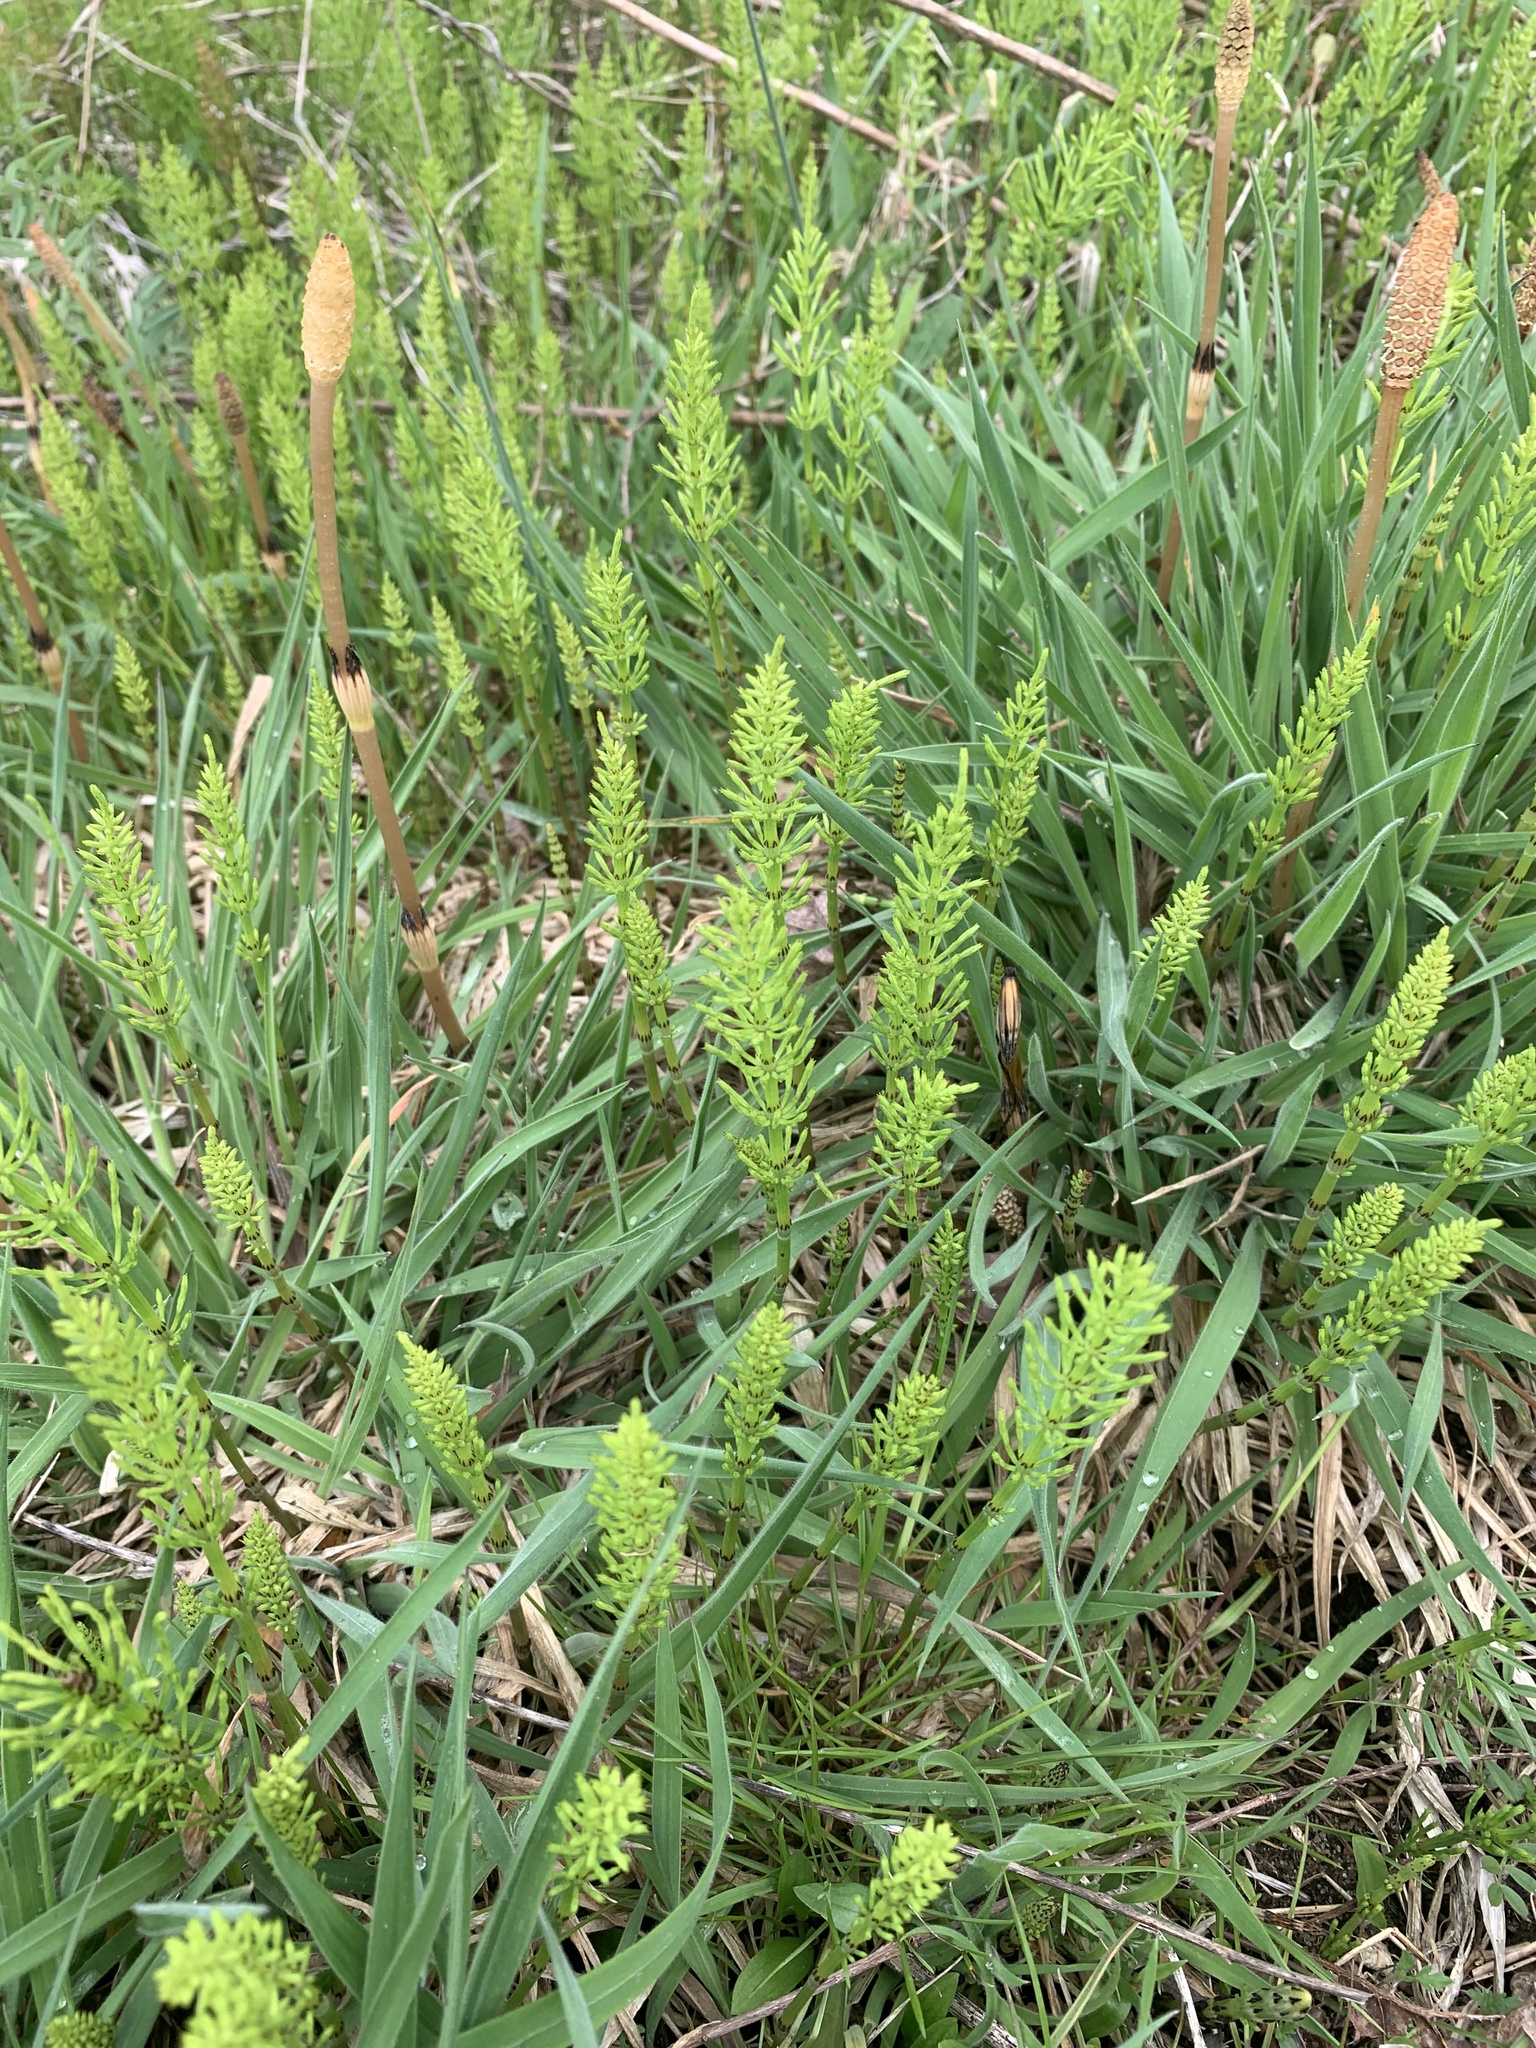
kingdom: Plantae
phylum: Tracheophyta
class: Polypodiopsida
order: Equisetales
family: Equisetaceae
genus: Equisetum
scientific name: Equisetum arvense
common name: Field horsetail
